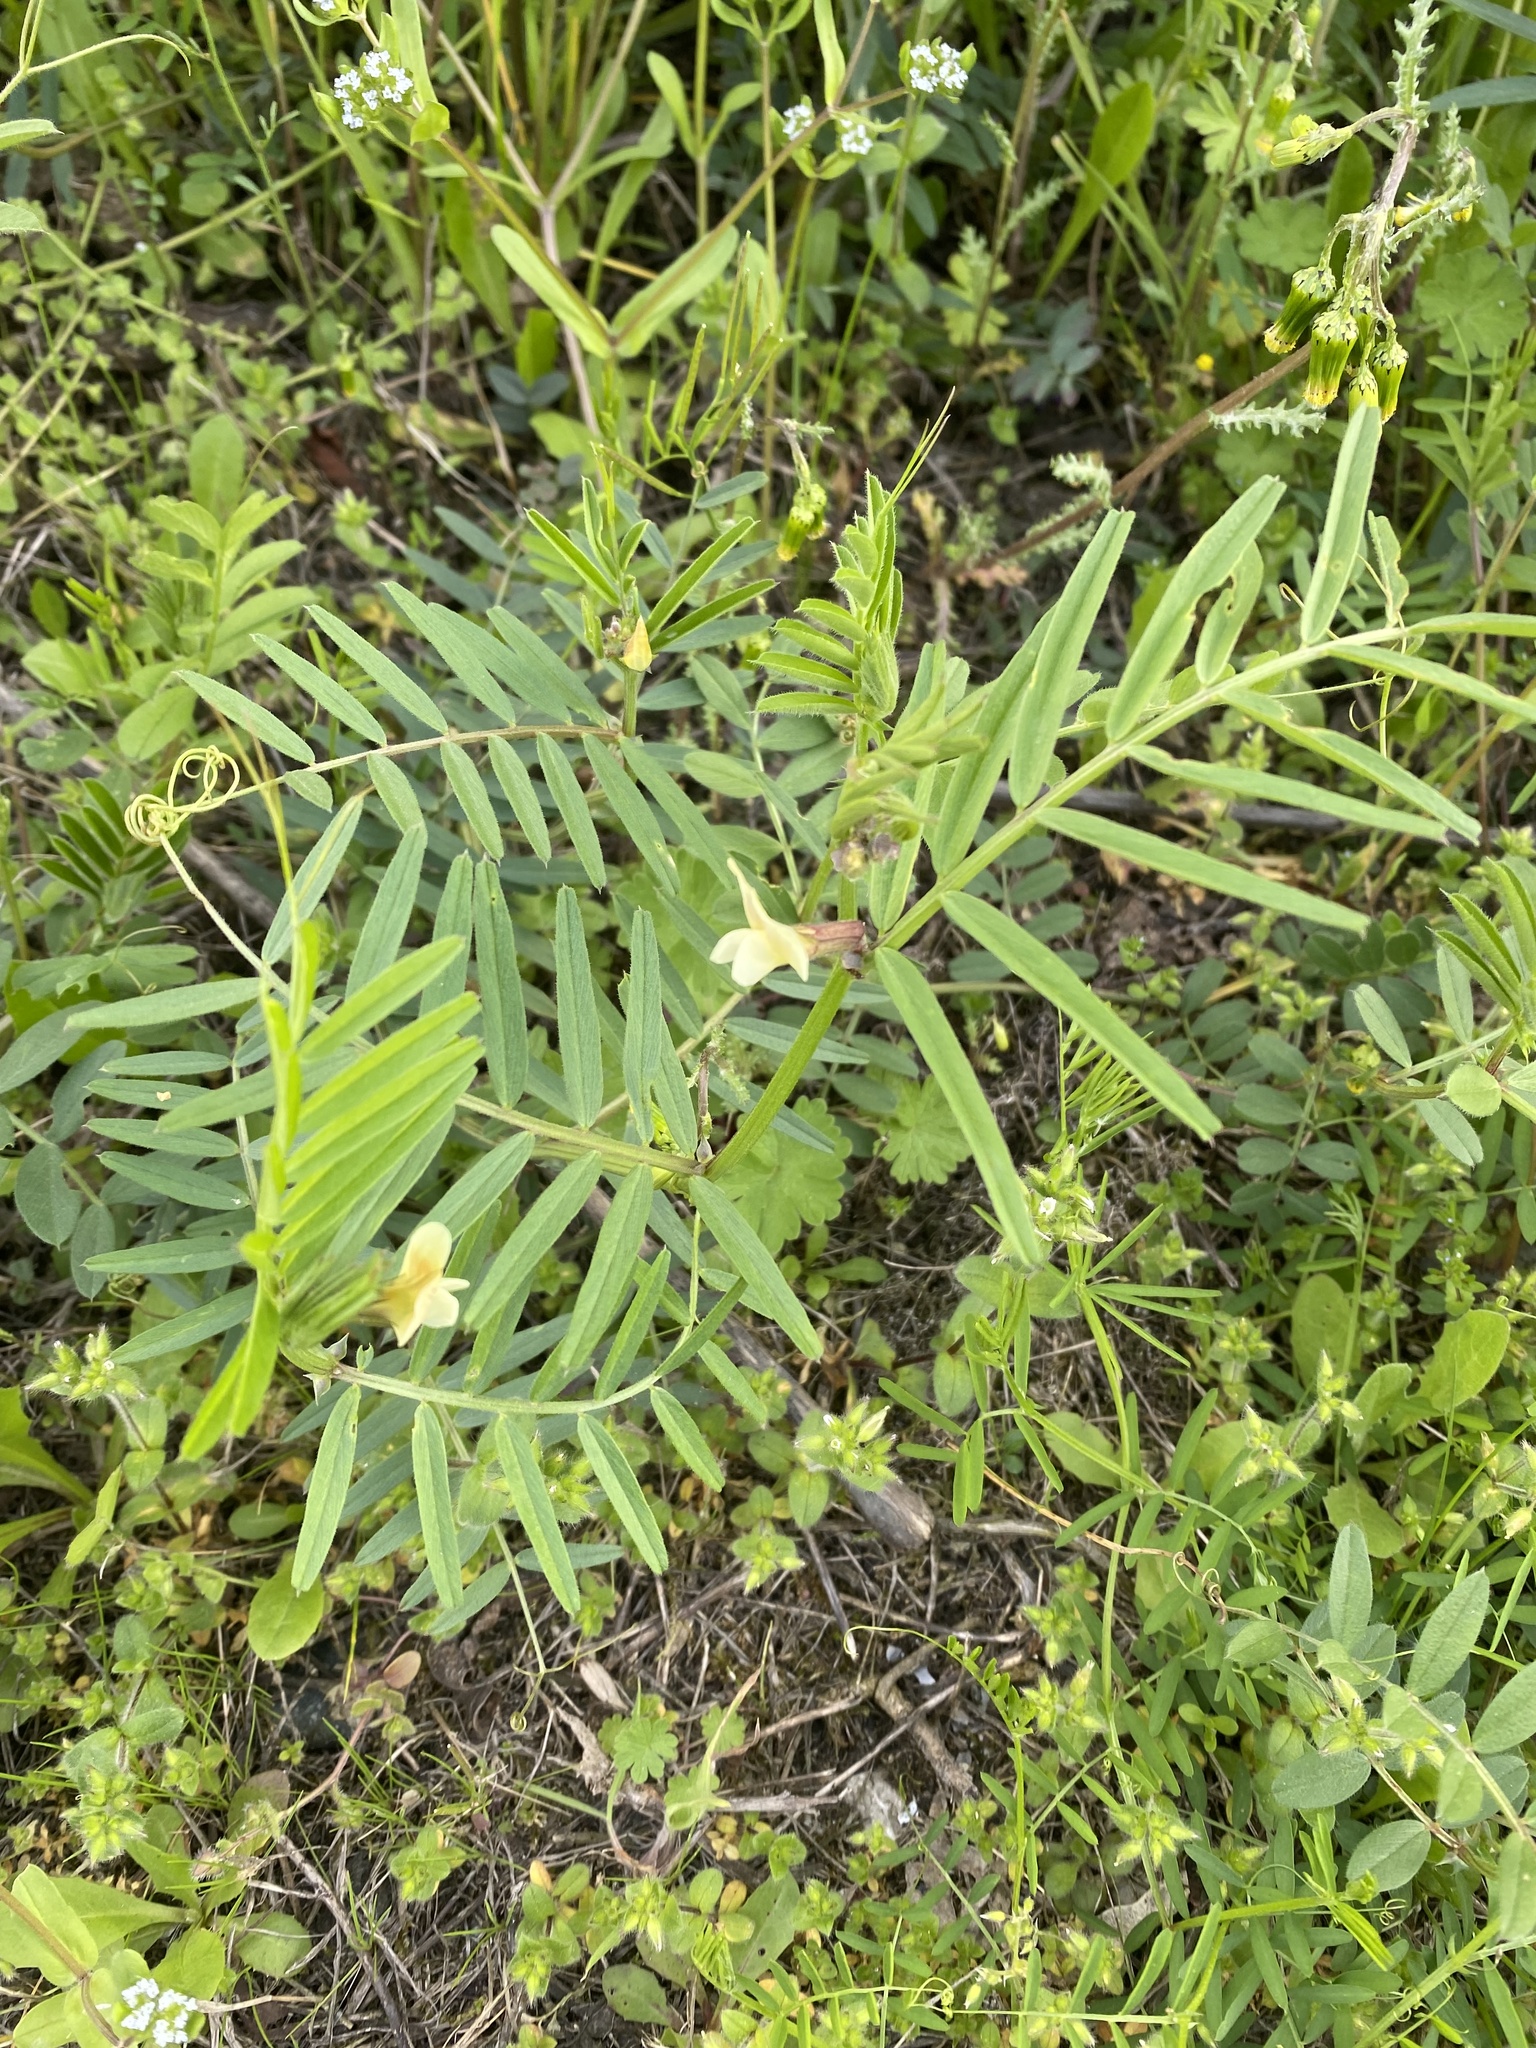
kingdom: Plantae
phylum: Tracheophyta
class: Magnoliopsida
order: Fabales
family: Fabaceae
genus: Vicia
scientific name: Vicia grandiflora
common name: Large yellow vetch
